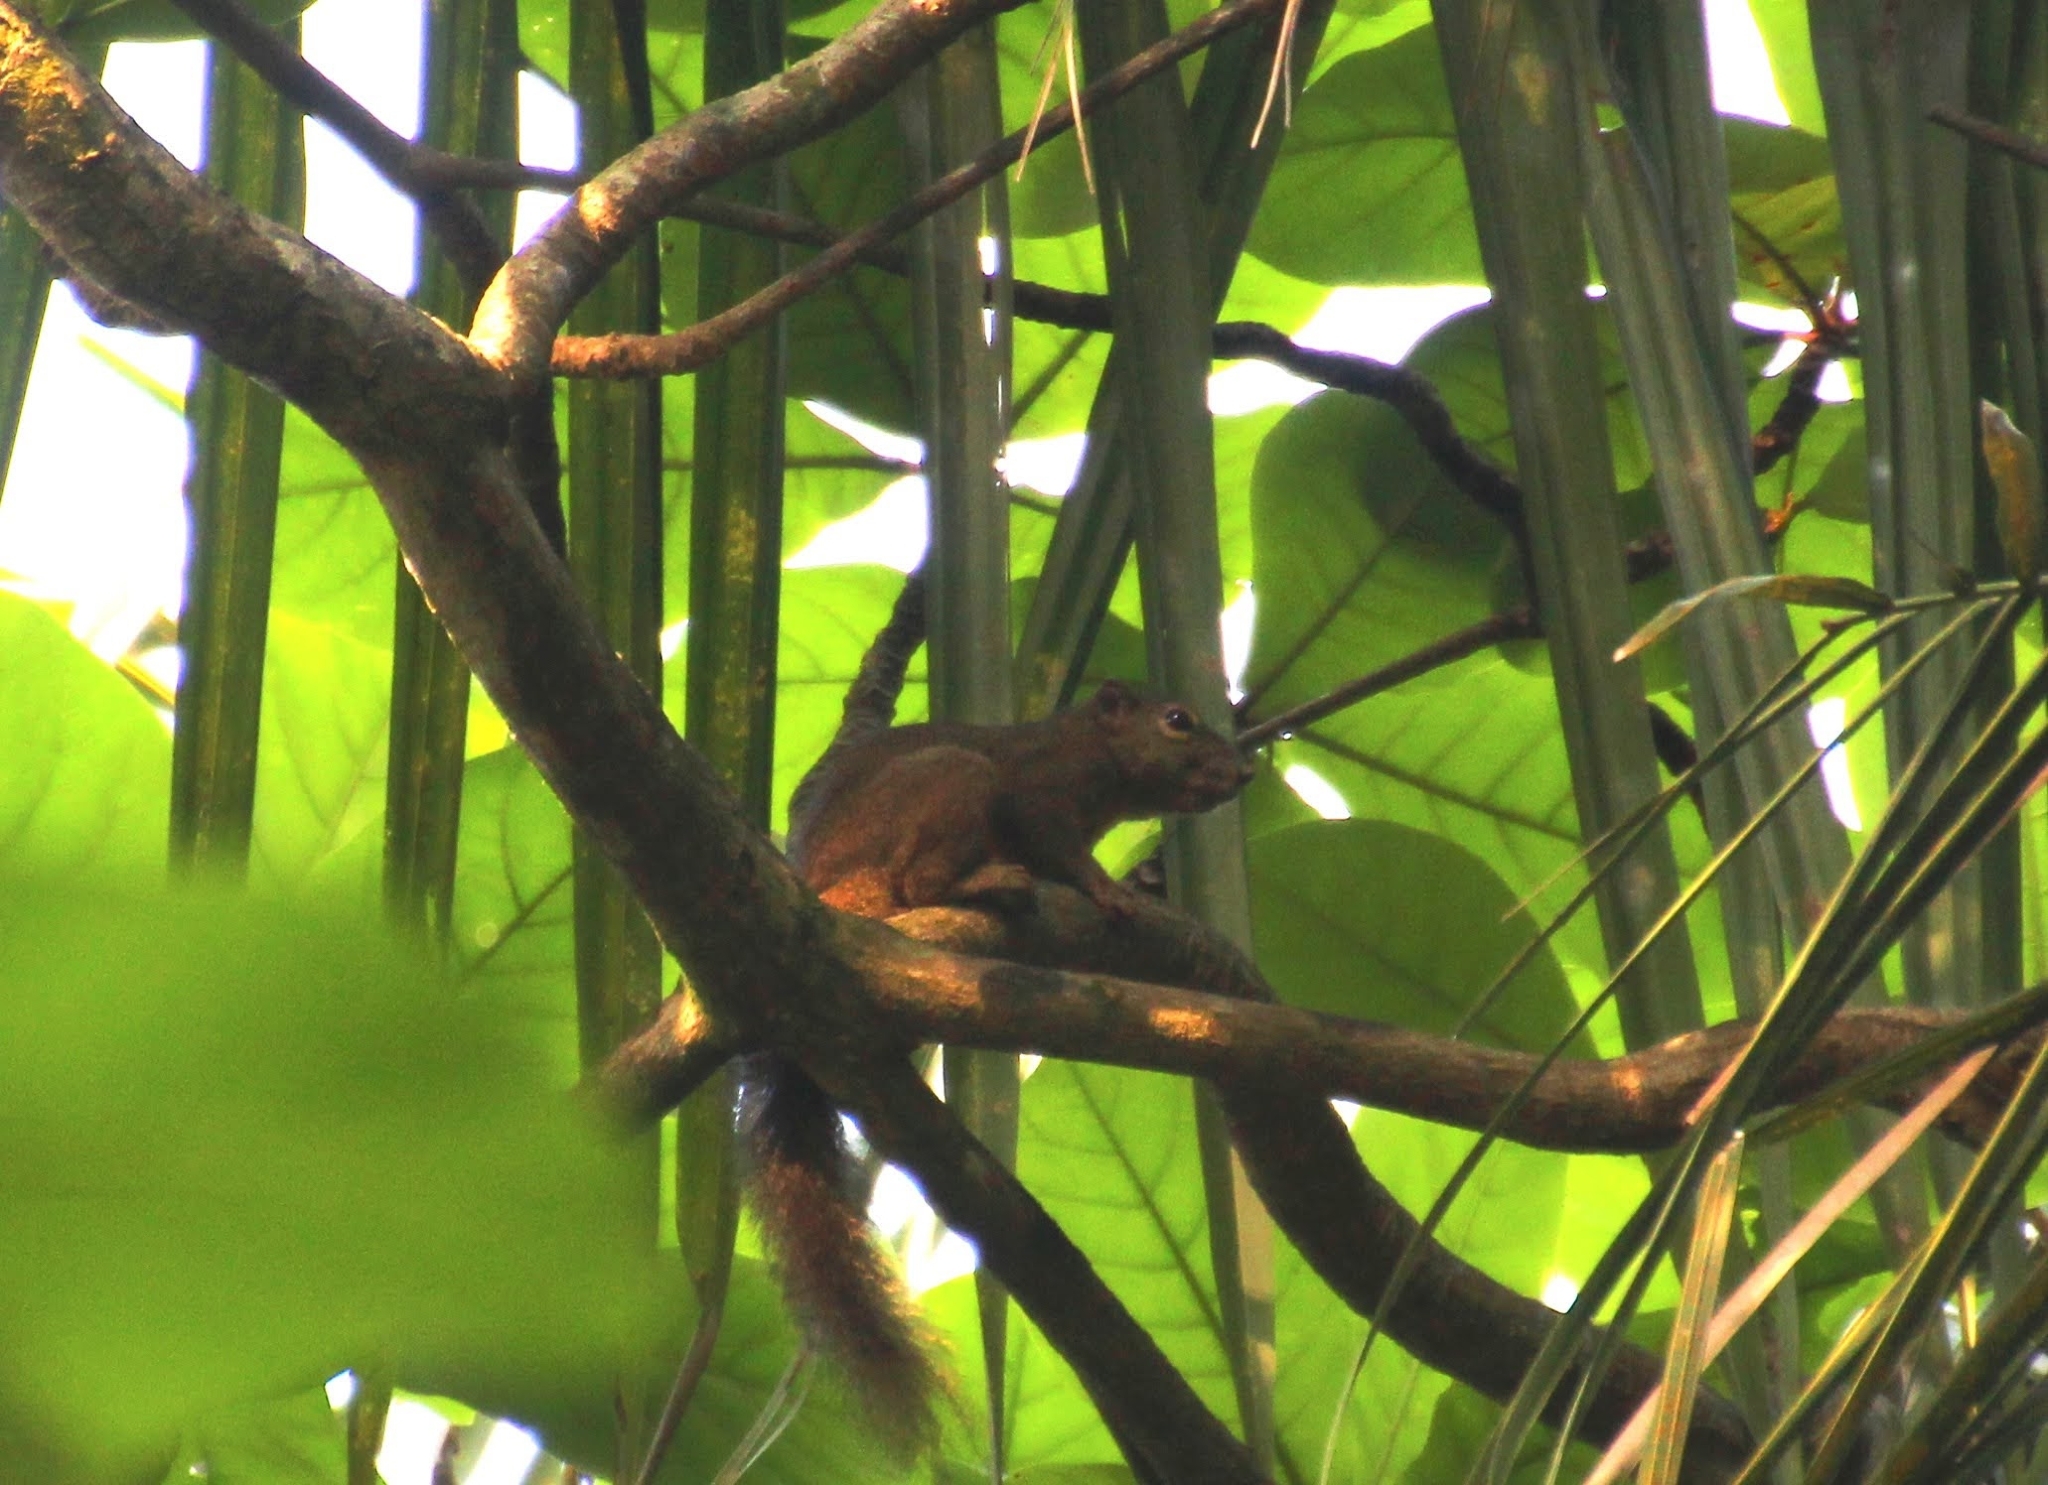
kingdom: Animalia
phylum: Chordata
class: Mammalia
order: Rodentia
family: Sciuridae
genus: Callosciurus
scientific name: Callosciurus notatus
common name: Plantain squirrel
